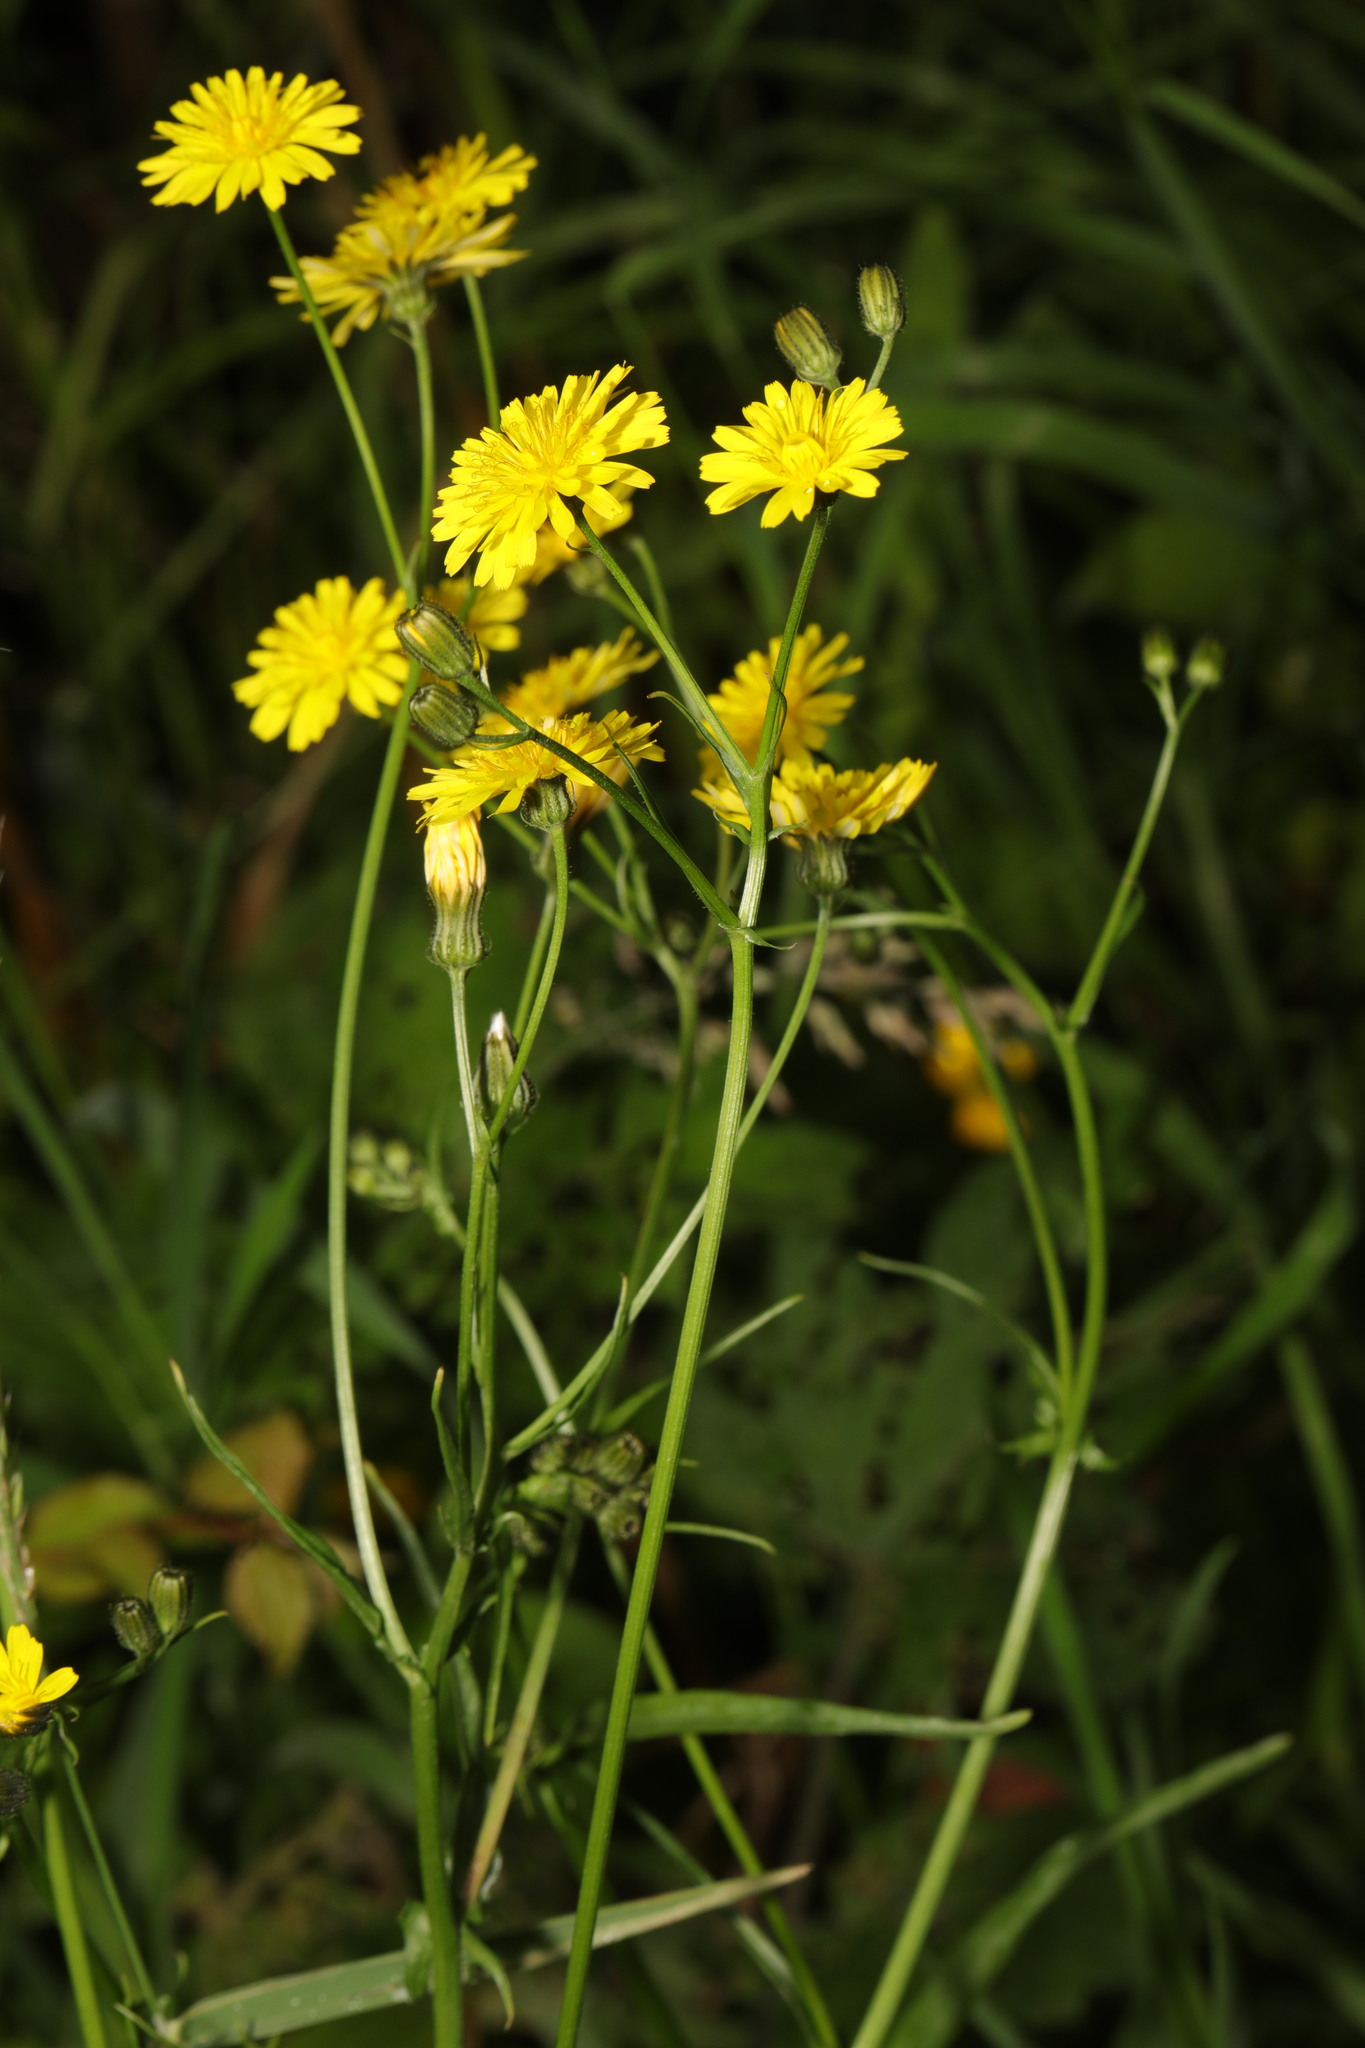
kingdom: Plantae
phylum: Tracheophyta
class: Magnoliopsida
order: Asterales
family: Asteraceae
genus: Crepis
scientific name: Crepis capillaris
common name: Smooth hawksbeard
